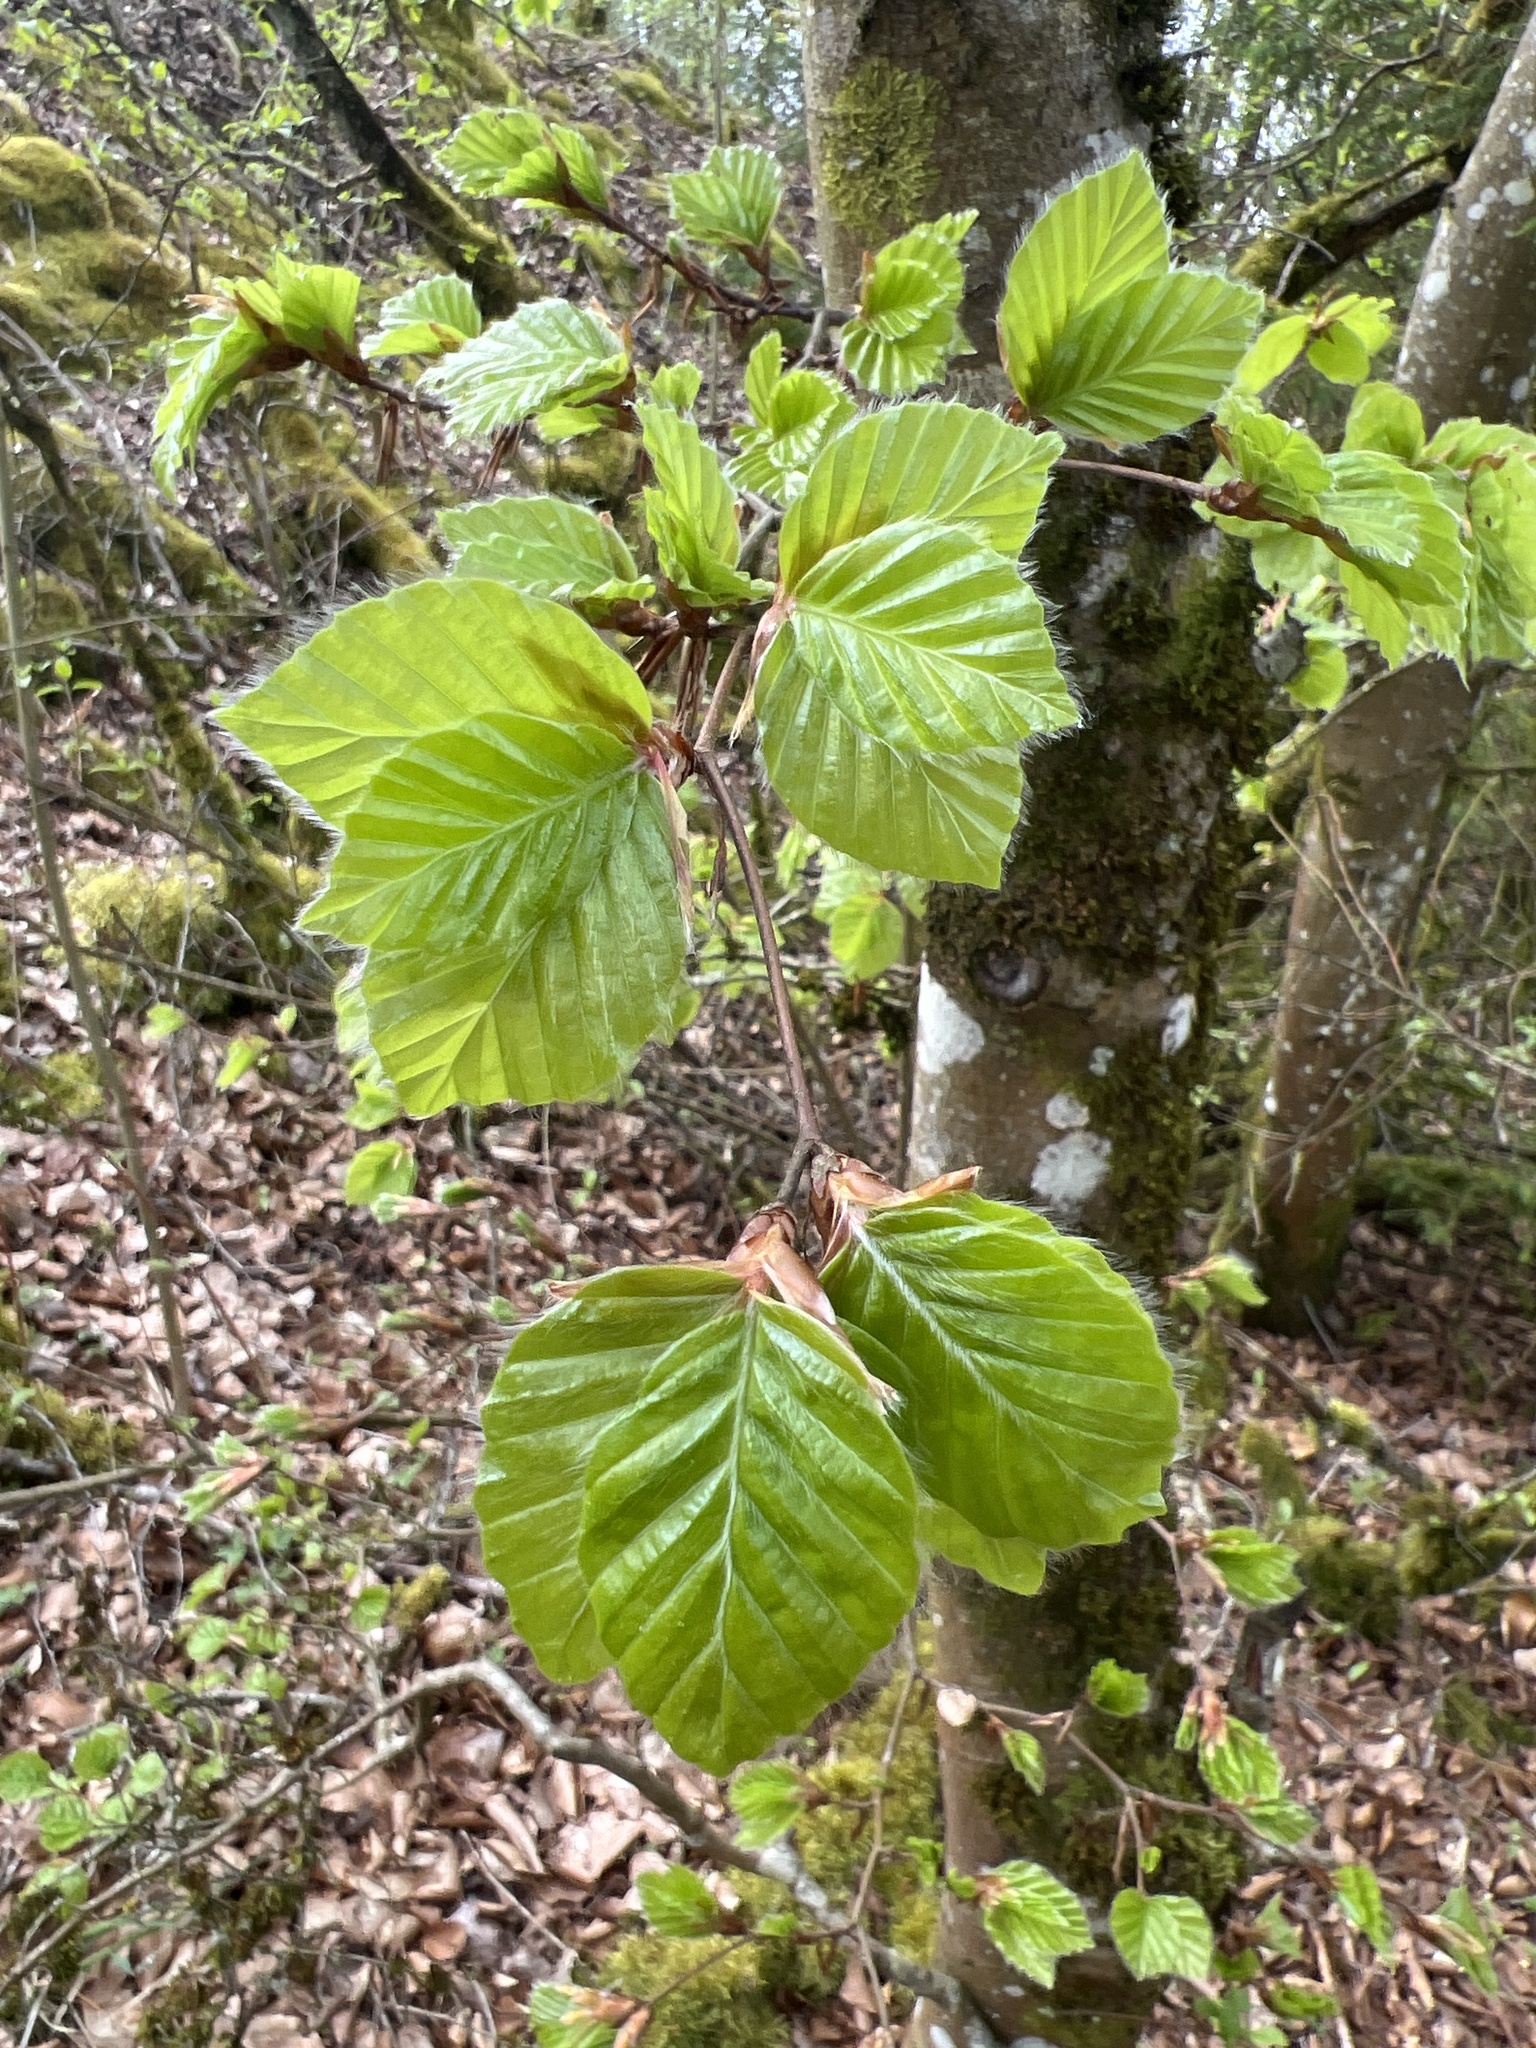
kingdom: Plantae
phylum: Tracheophyta
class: Magnoliopsida
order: Fagales
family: Fagaceae
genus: Fagus
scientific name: Fagus sylvatica
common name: Beech
